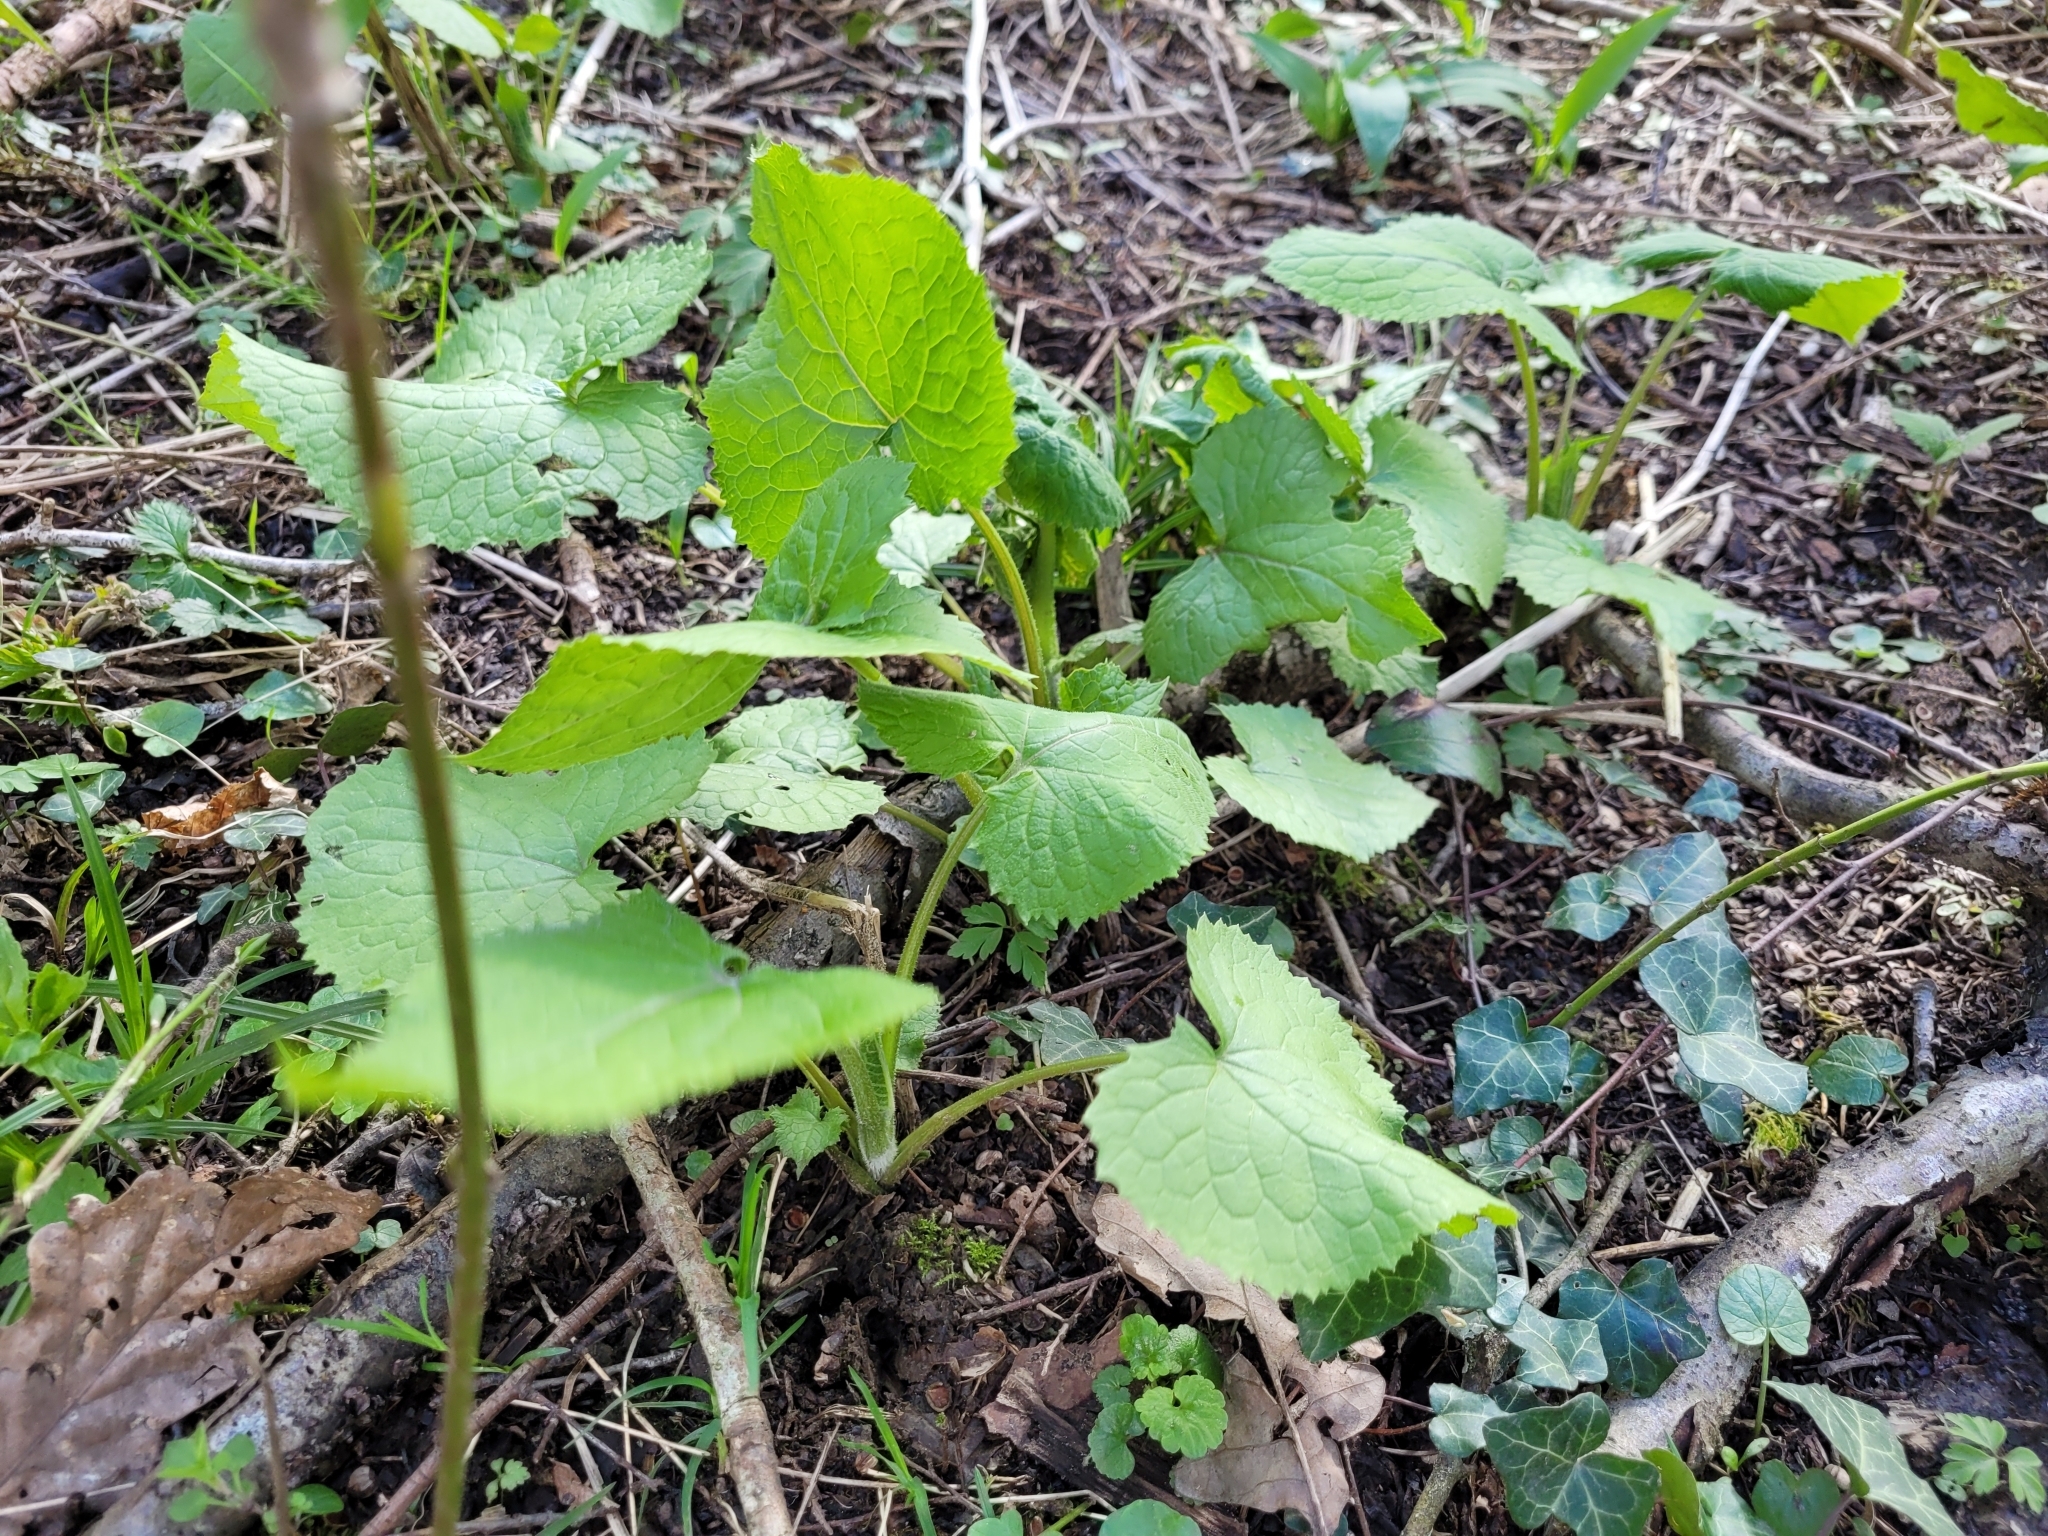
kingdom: Plantae
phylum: Tracheophyta
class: Magnoliopsida
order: Brassicales
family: Brassicaceae
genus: Lunaria
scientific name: Lunaria rediviva
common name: Perennial honesty
